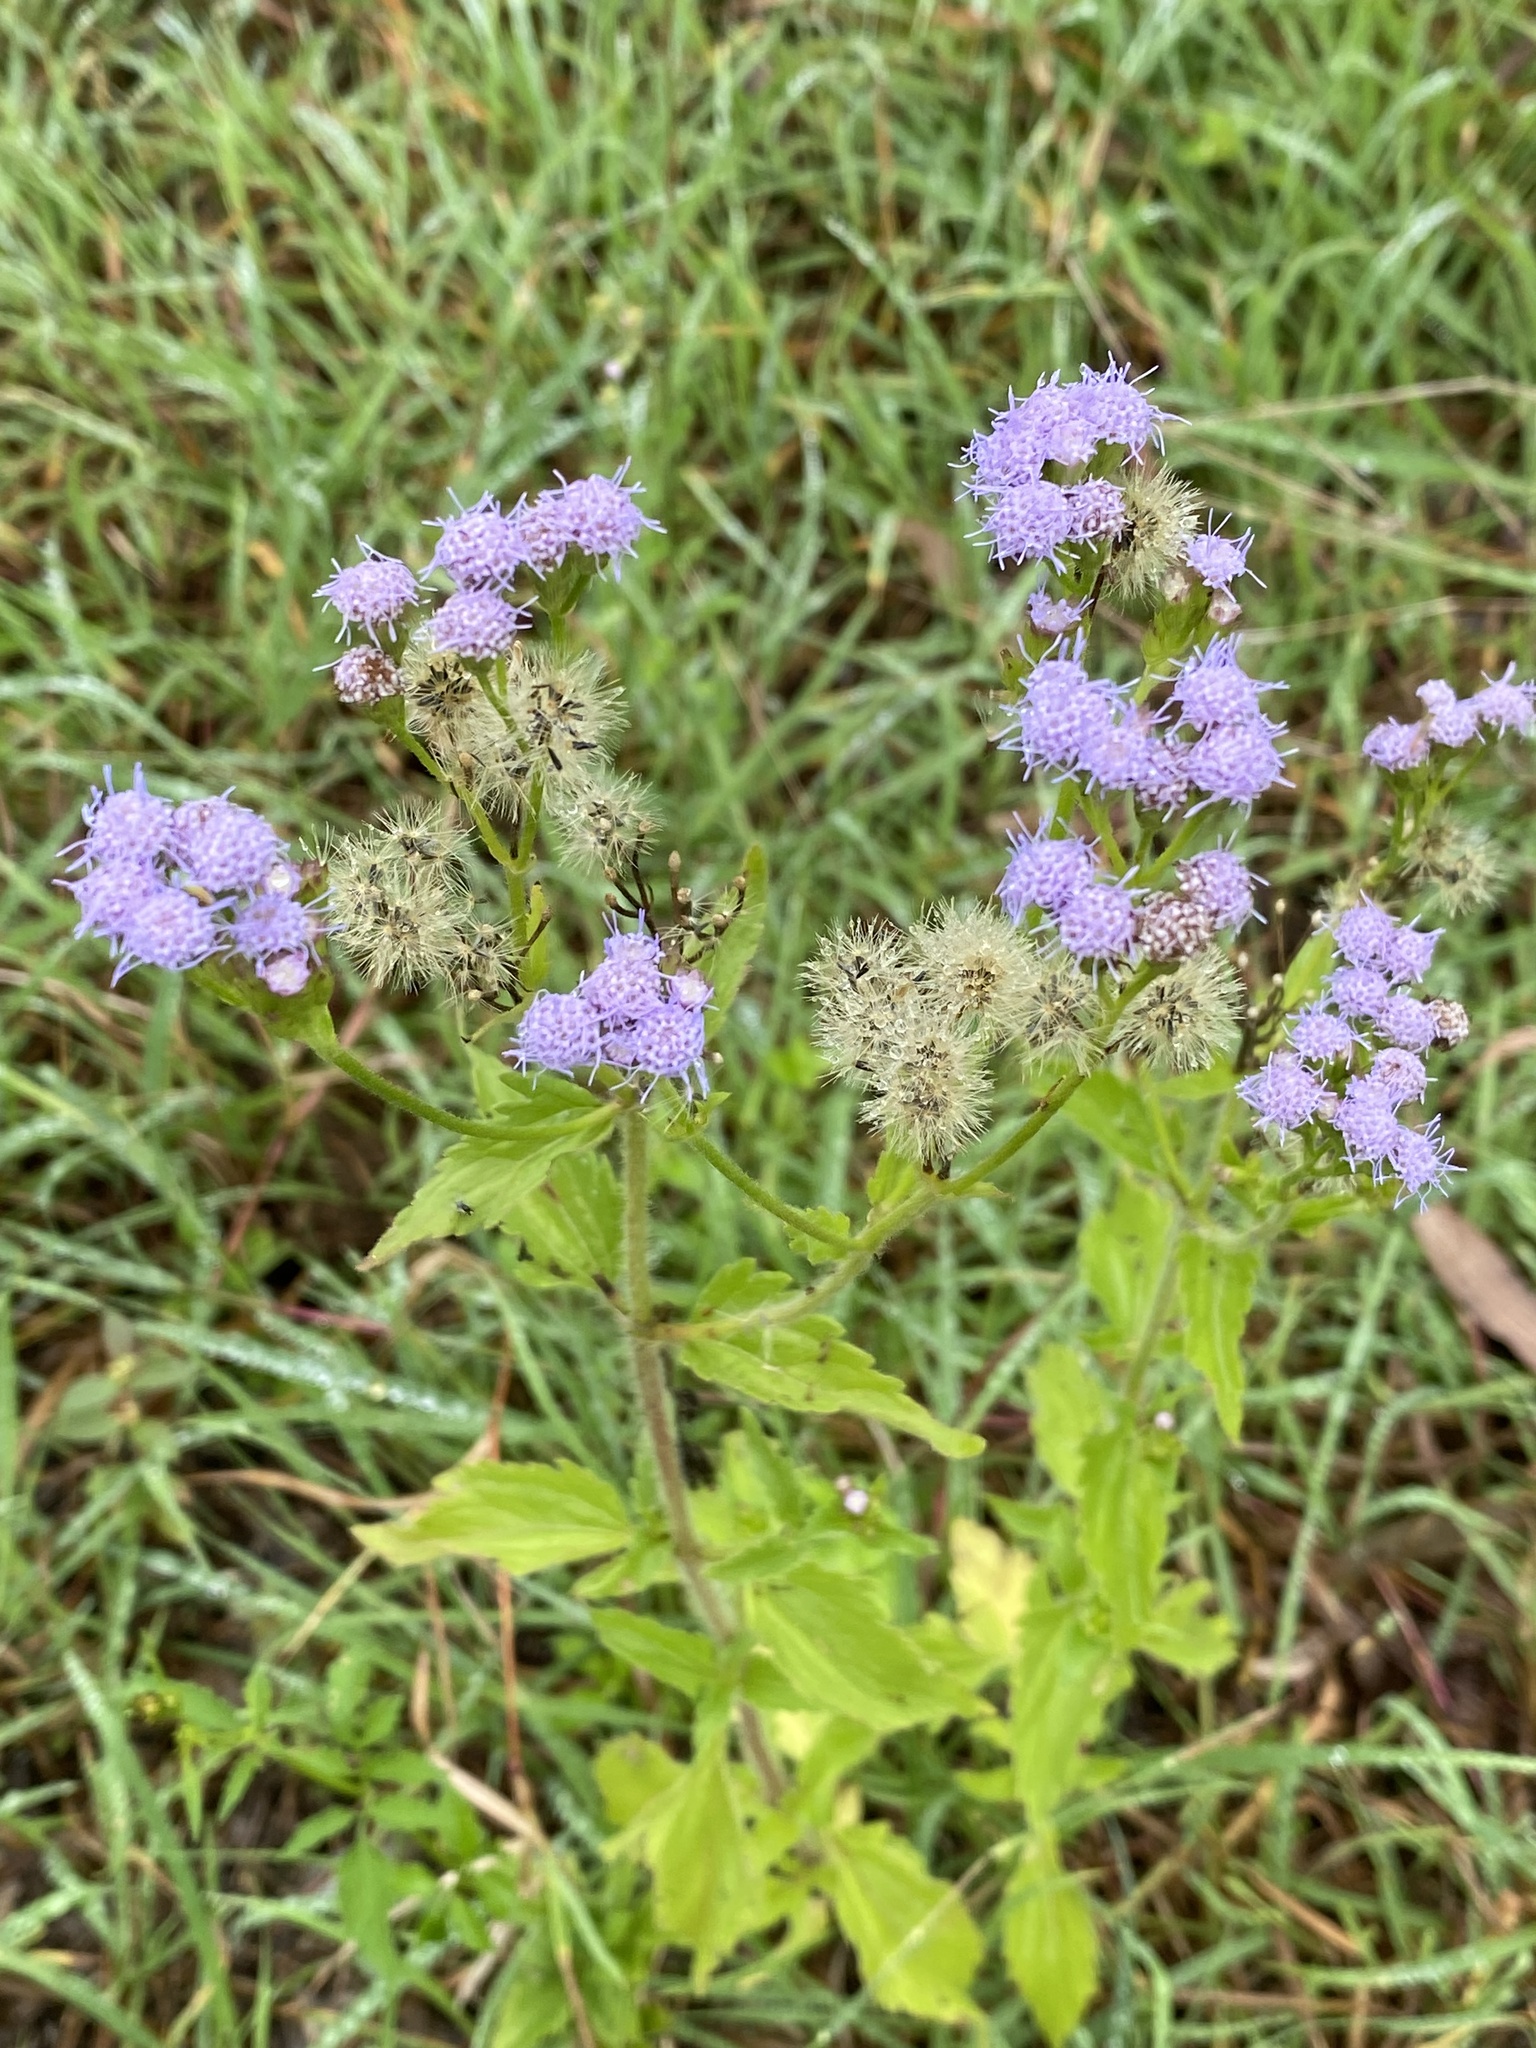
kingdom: Plantae
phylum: Tracheophyta
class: Magnoliopsida
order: Asterales
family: Asteraceae
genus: Praxelis
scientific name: Praxelis clematidea
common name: Praxelis
